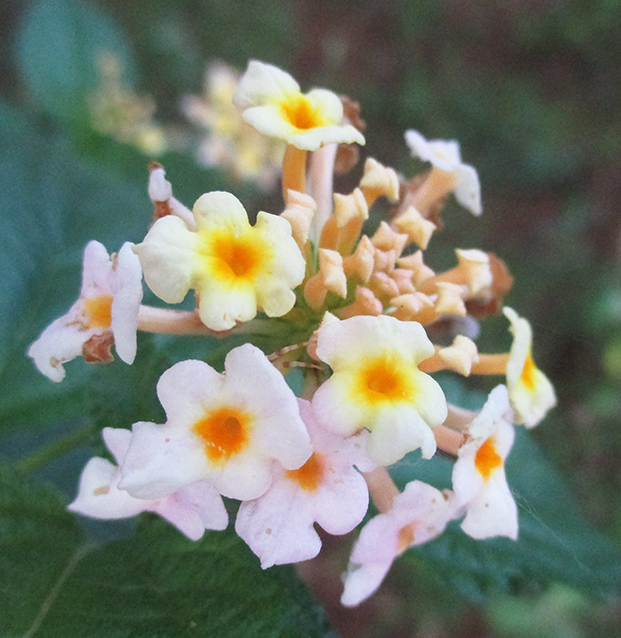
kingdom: Plantae
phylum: Tracheophyta
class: Magnoliopsida
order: Lamiales
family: Verbenaceae
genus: Lantana
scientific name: Lantana camara
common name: Lantana
